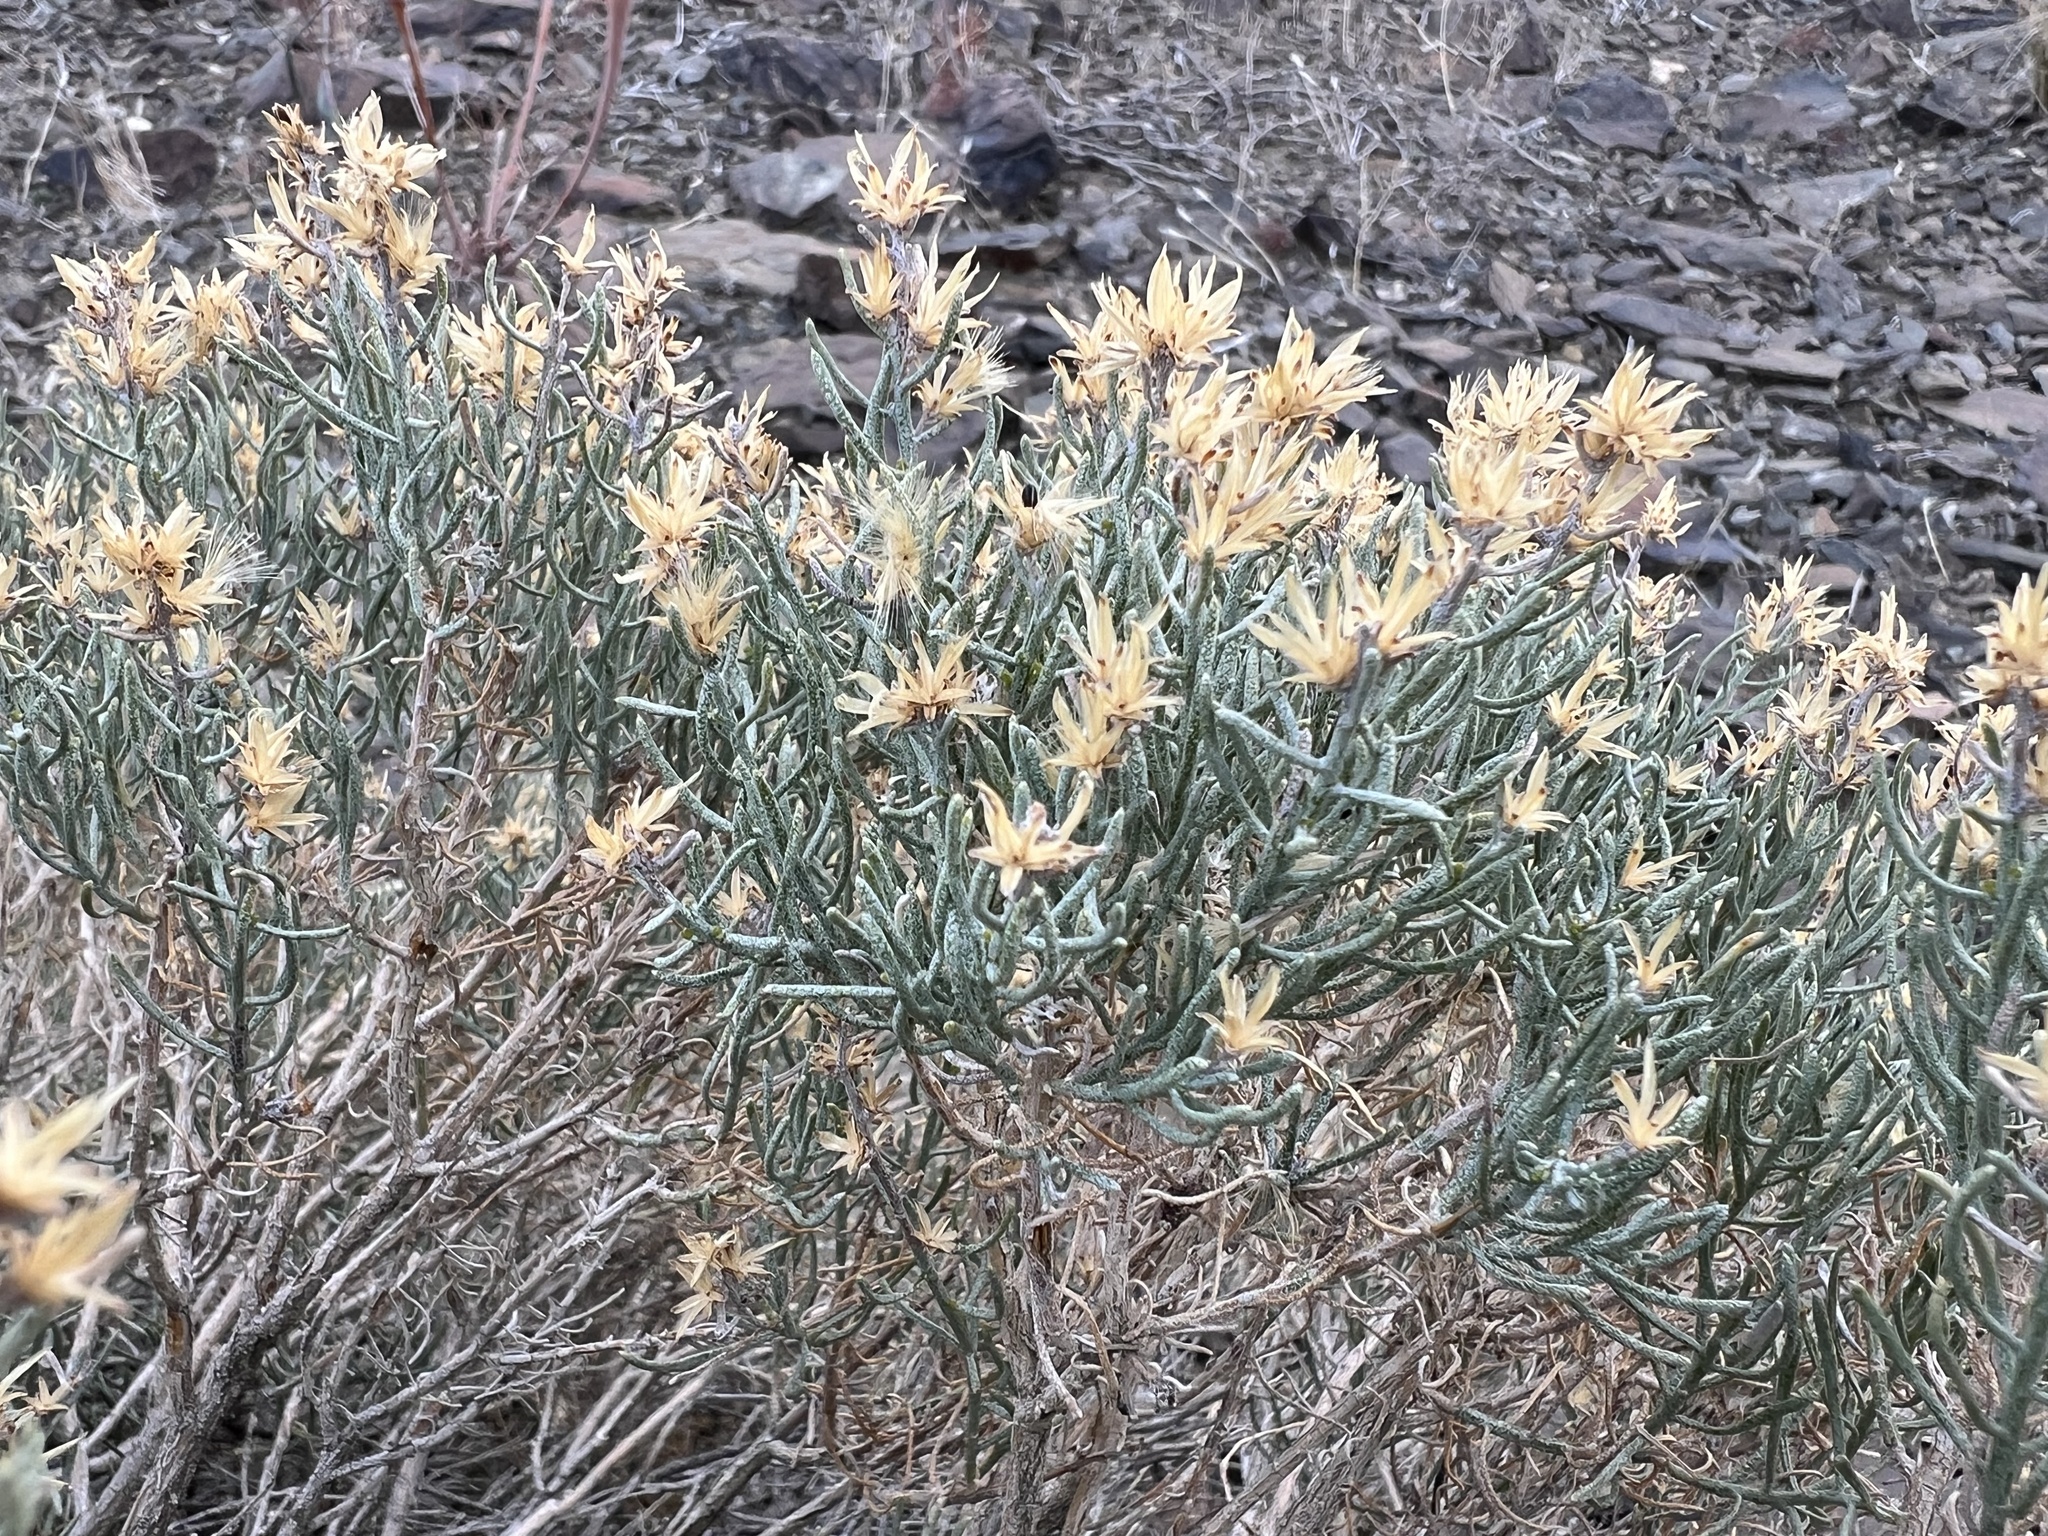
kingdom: Plantae
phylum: Tracheophyta
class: Magnoliopsida
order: Asterales
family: Asteraceae
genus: Ericameria
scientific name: Ericameria teretifolia
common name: Round-leaf rabbitbrush
